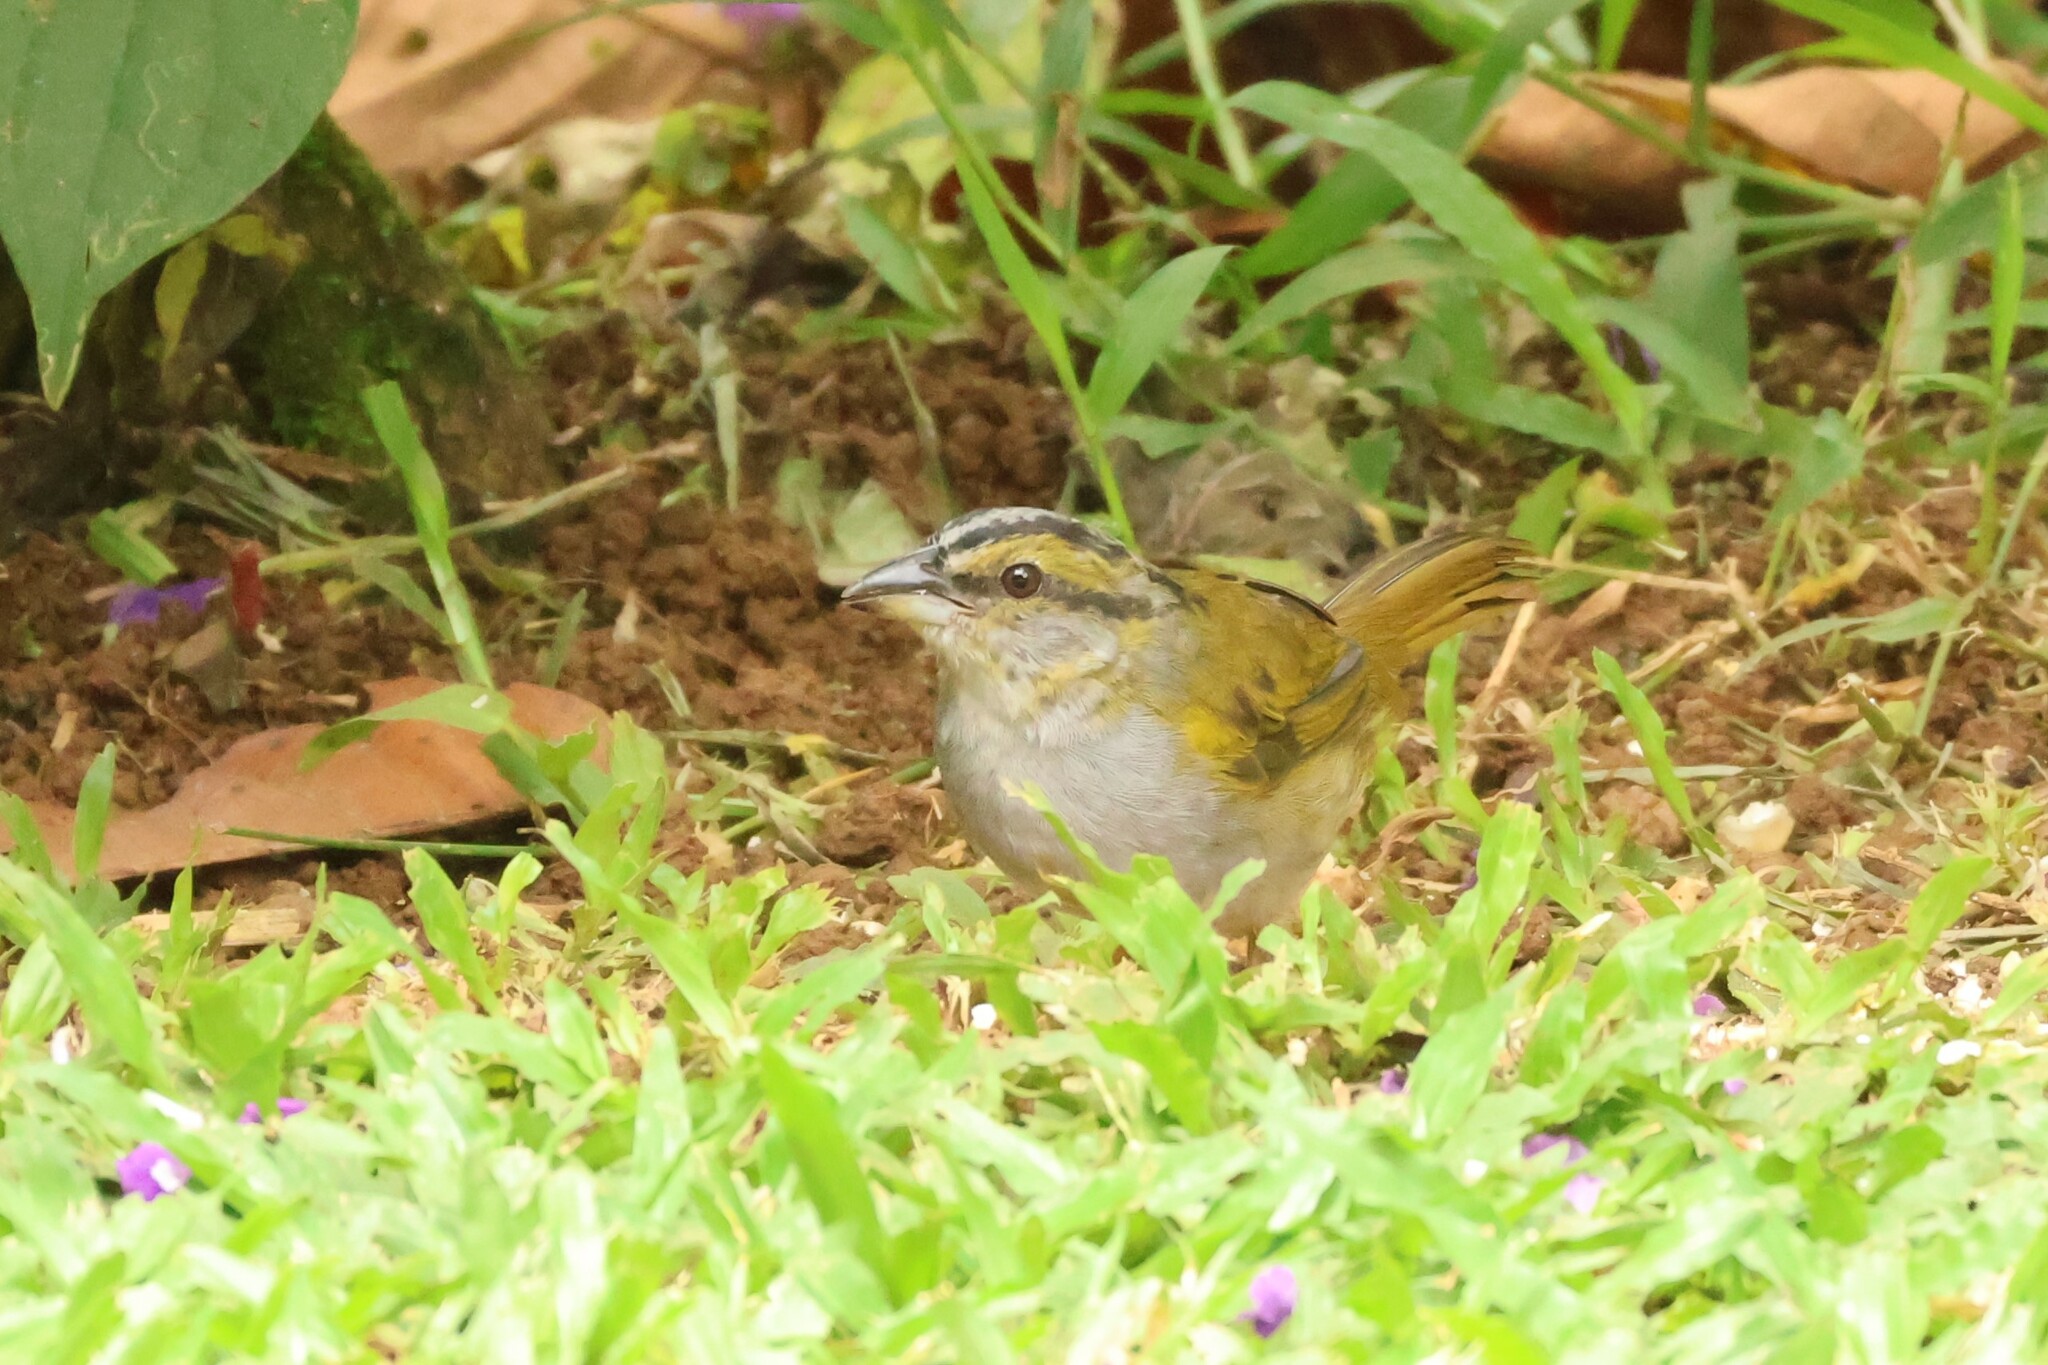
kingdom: Animalia
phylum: Chordata
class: Aves
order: Passeriformes
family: Passerellidae
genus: Arremonops
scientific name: Arremonops conirostris
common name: Black-striped sparrow
